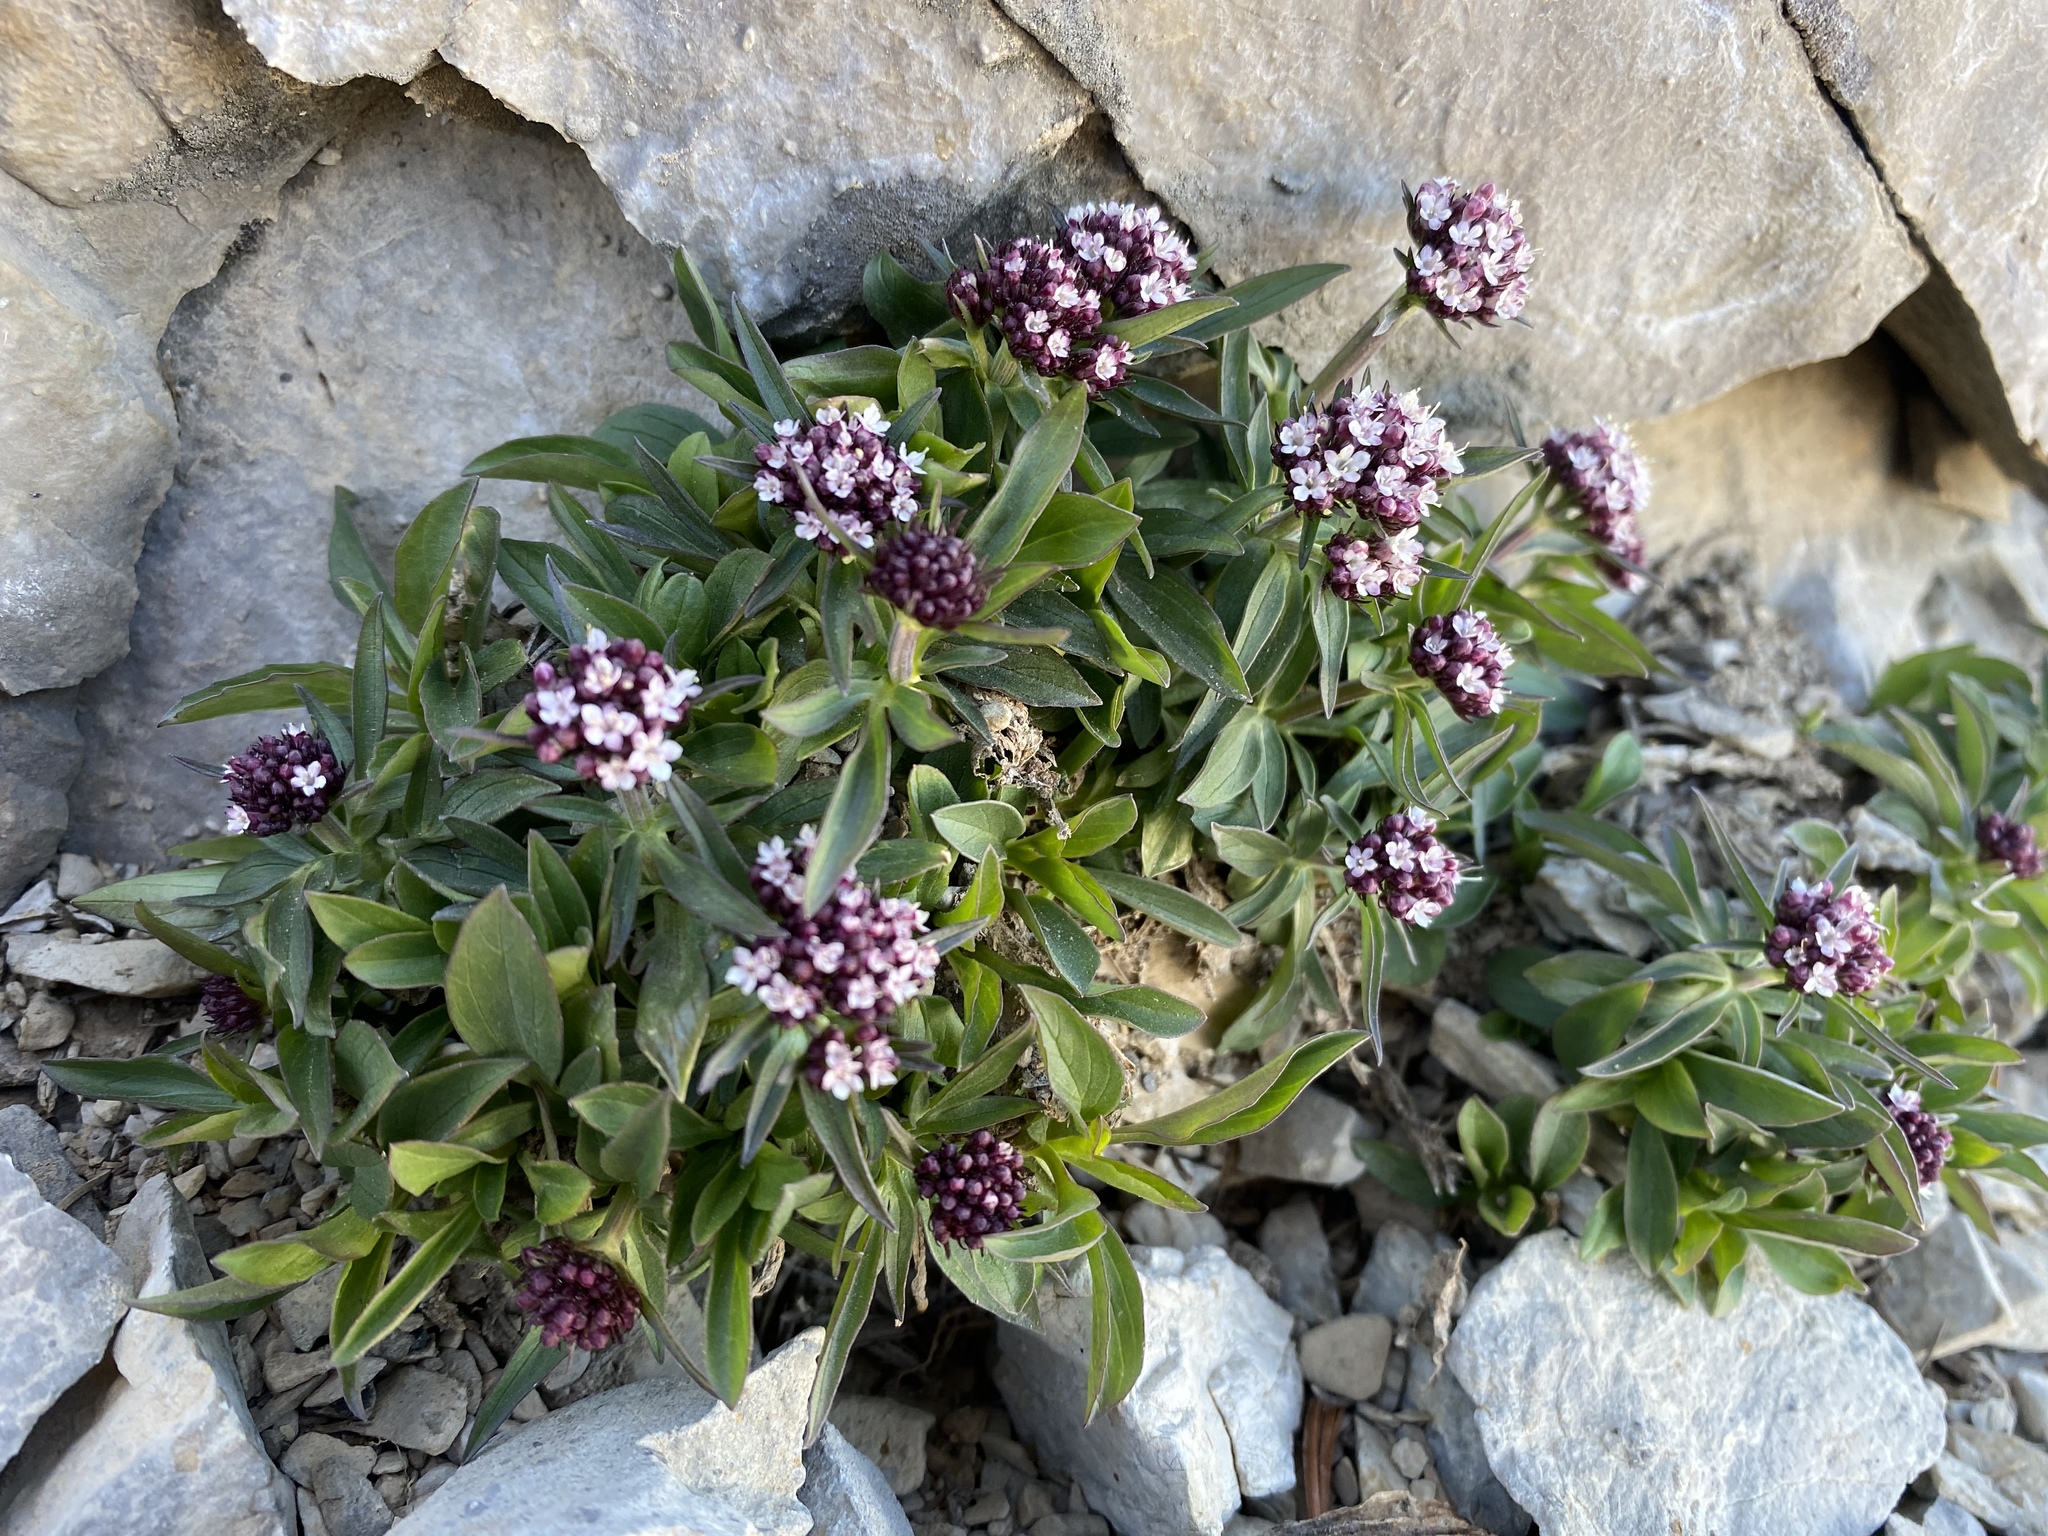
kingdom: Plantae
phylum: Tracheophyta
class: Magnoliopsida
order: Dipsacales
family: Caprifoliaceae
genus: Valeriana
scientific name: Valeriana acutiloba
